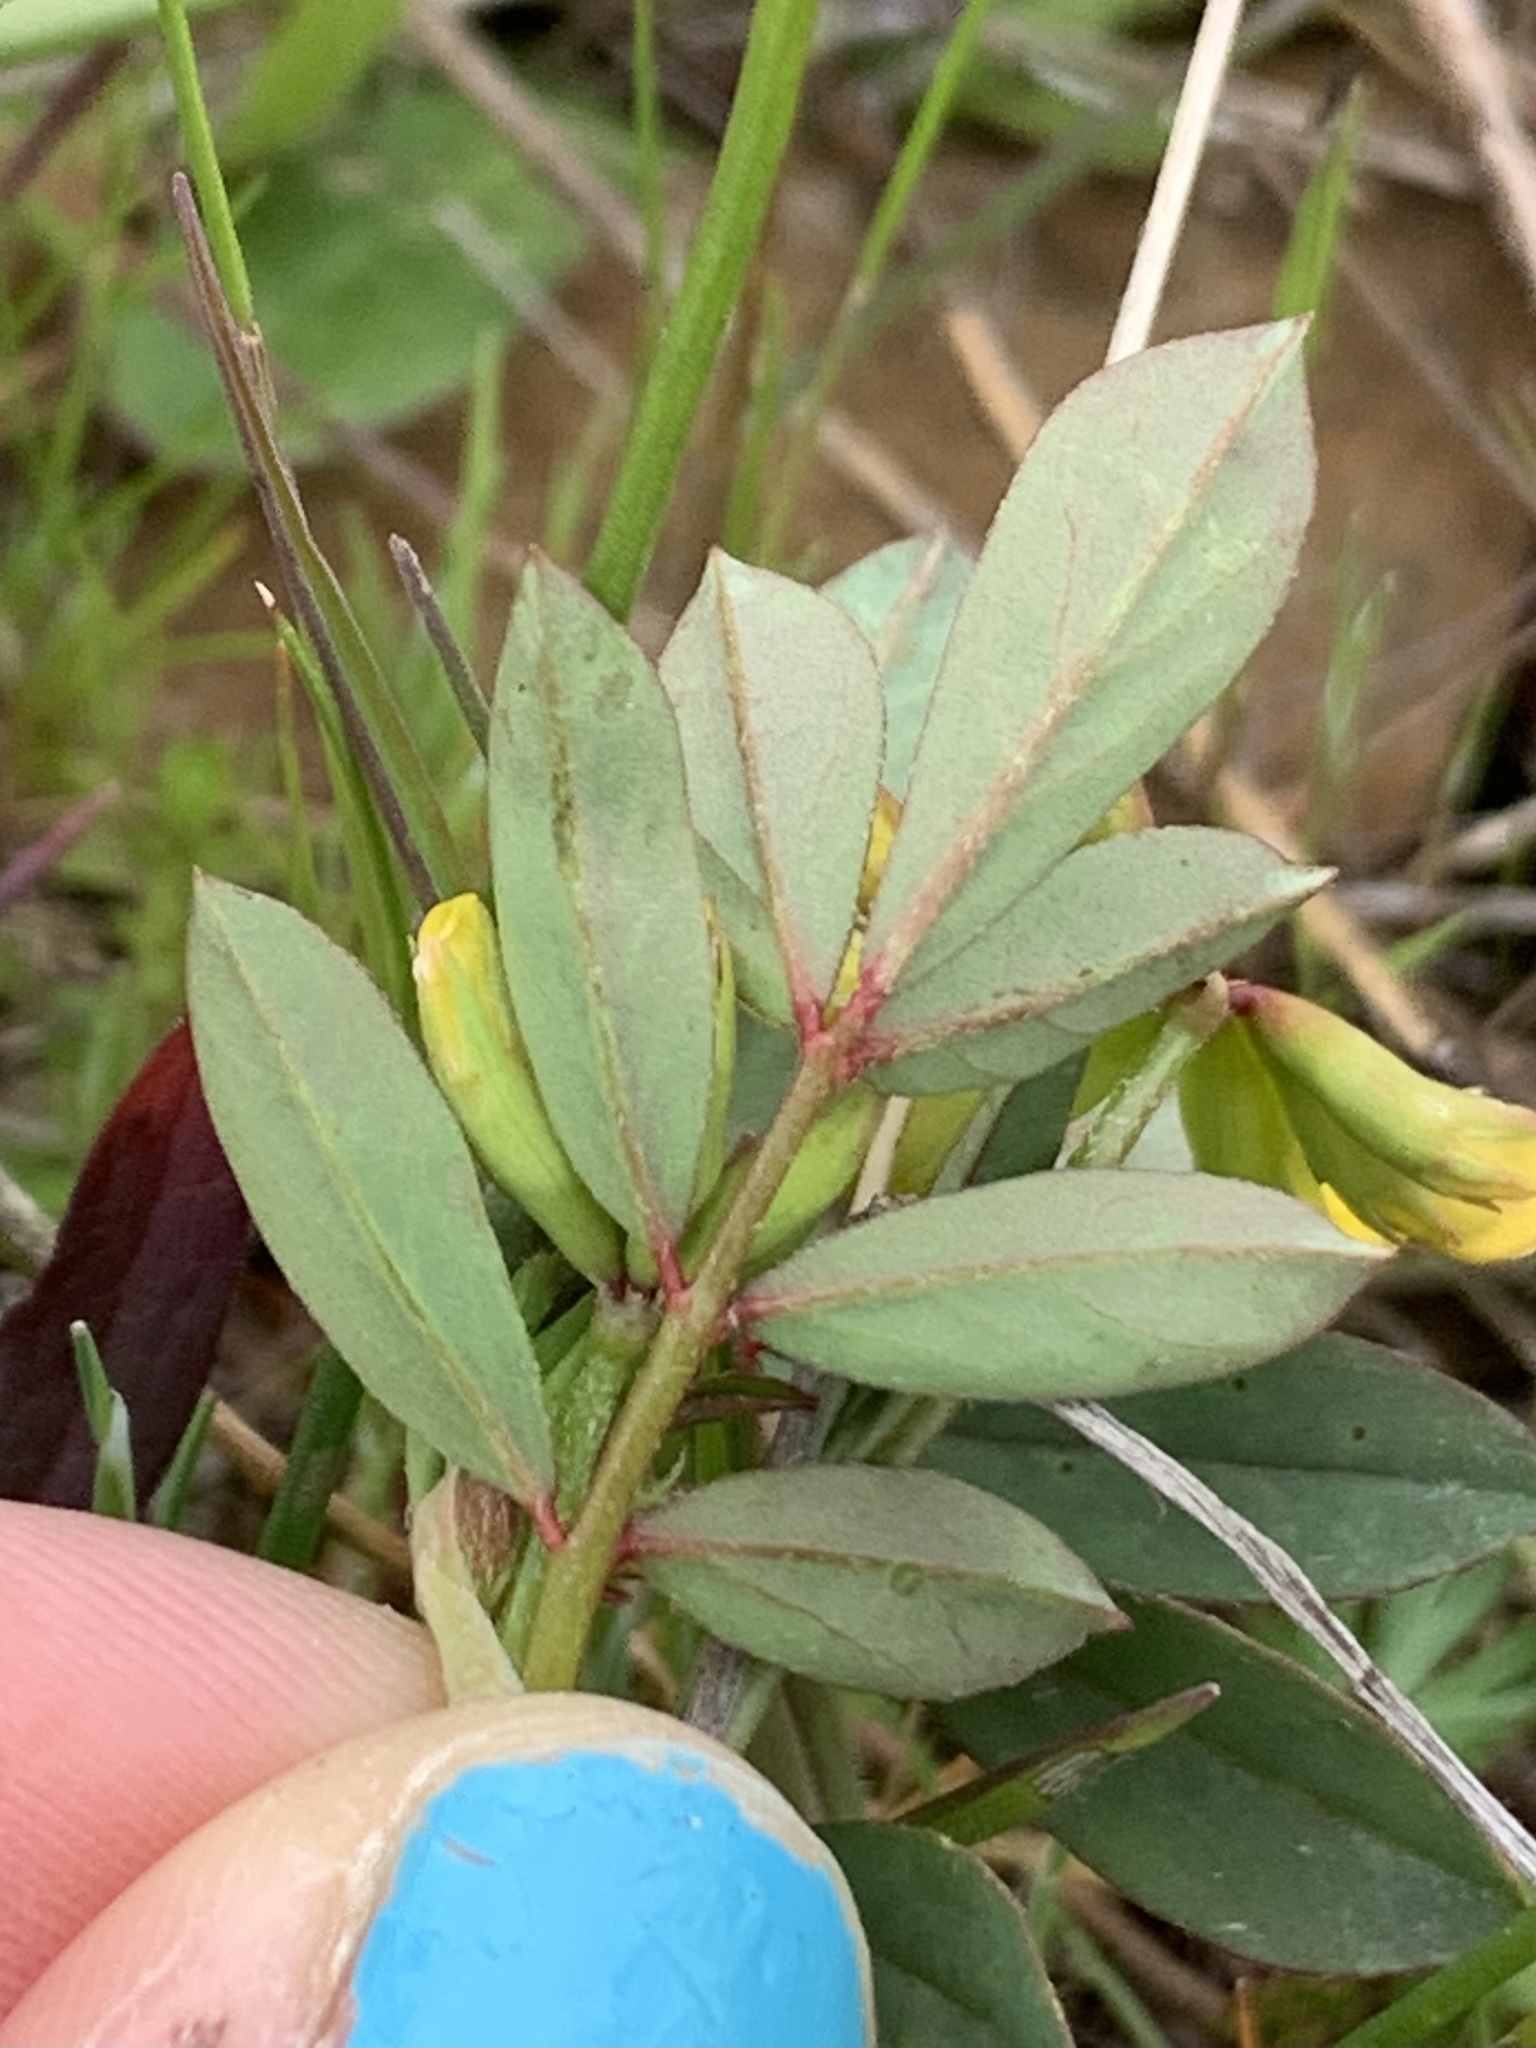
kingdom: Plantae
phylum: Tracheophyta
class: Magnoliopsida
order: Fabales
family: Fabaceae
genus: Hosackia
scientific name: Hosackia pinnata
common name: Bog bird's-foot trefoil
